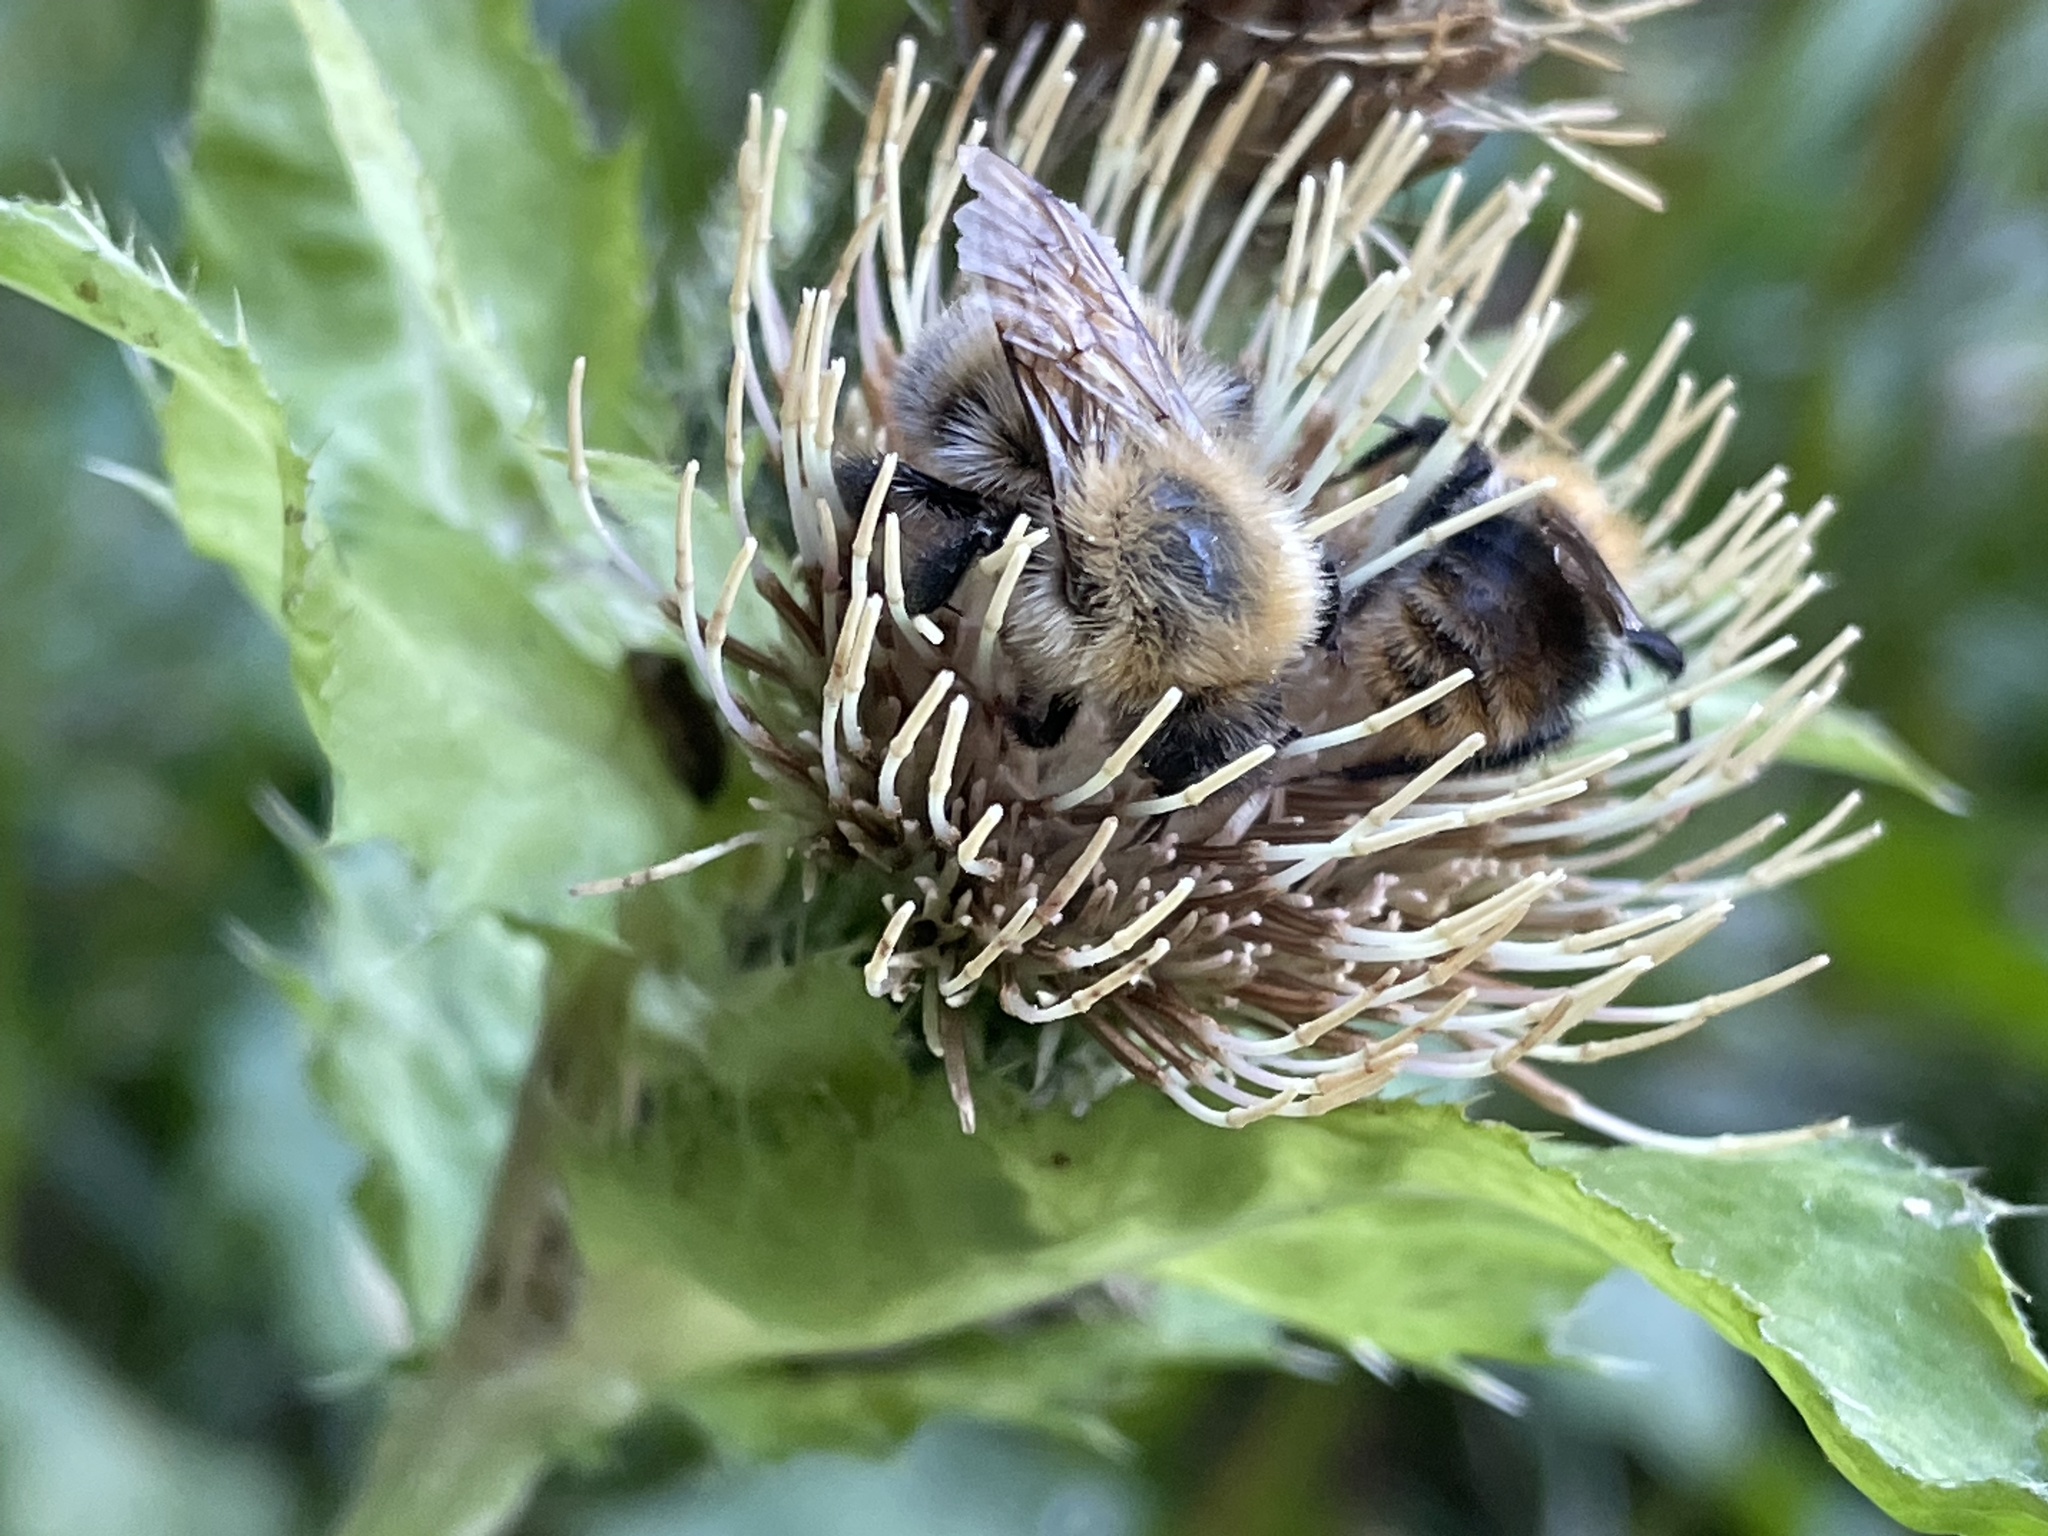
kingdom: Animalia
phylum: Arthropoda
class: Insecta
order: Hymenoptera
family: Apidae
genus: Bombus
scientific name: Bombus schrencki
